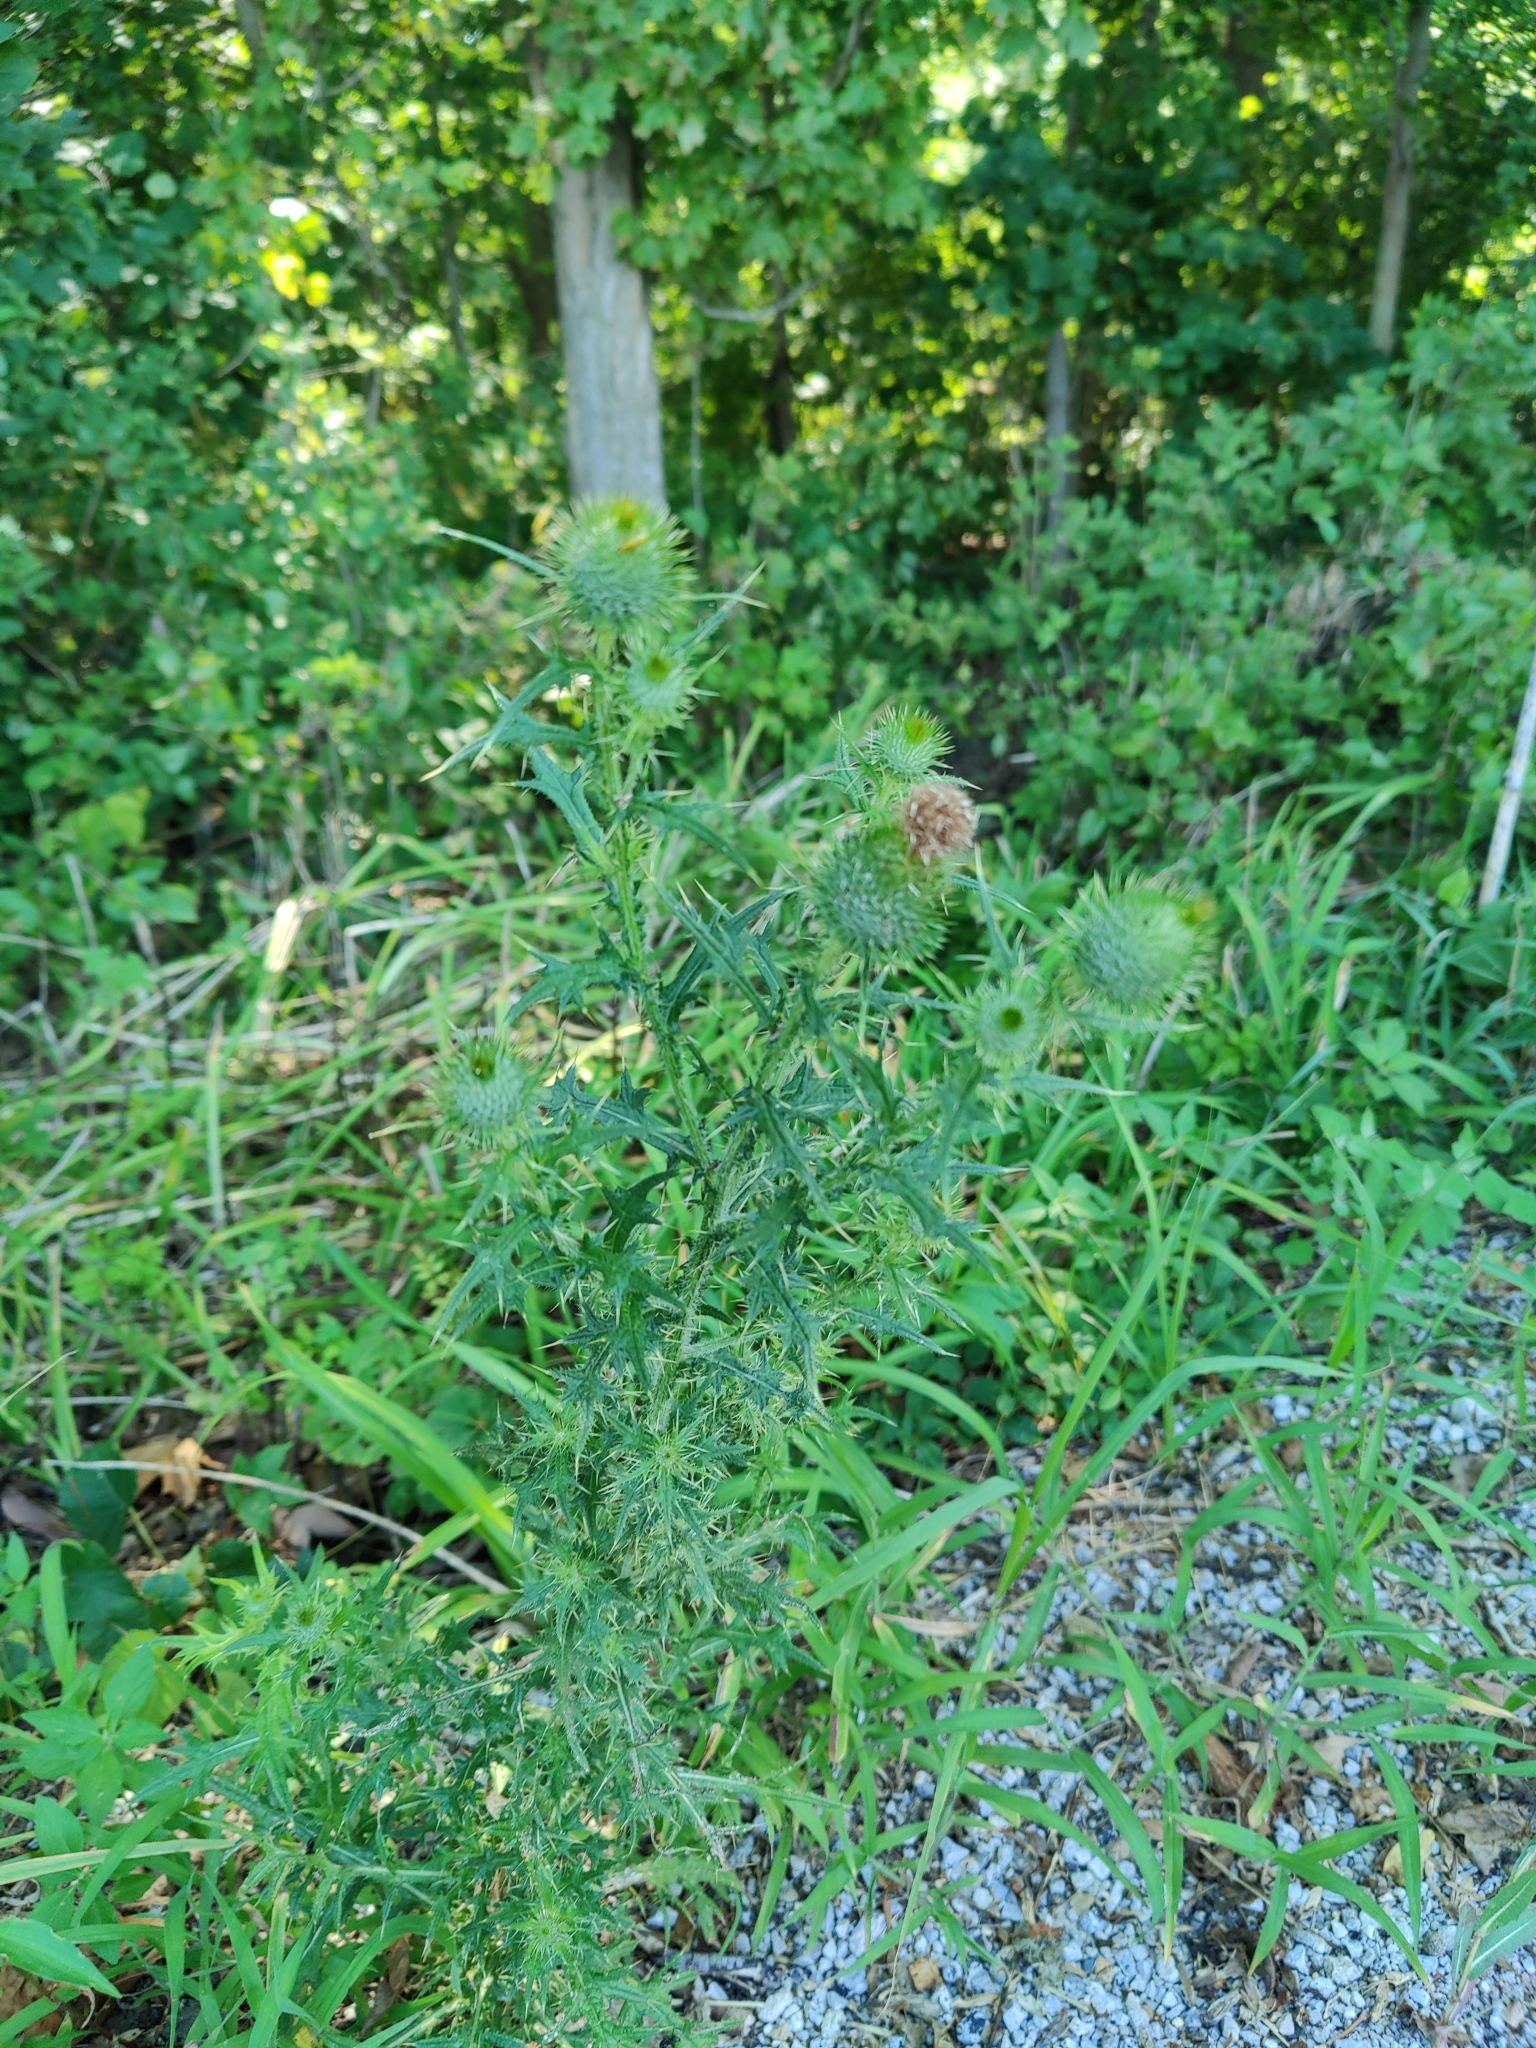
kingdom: Plantae
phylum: Tracheophyta
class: Magnoliopsida
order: Asterales
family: Asteraceae
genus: Cirsium
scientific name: Cirsium vulgare
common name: Bull thistle
